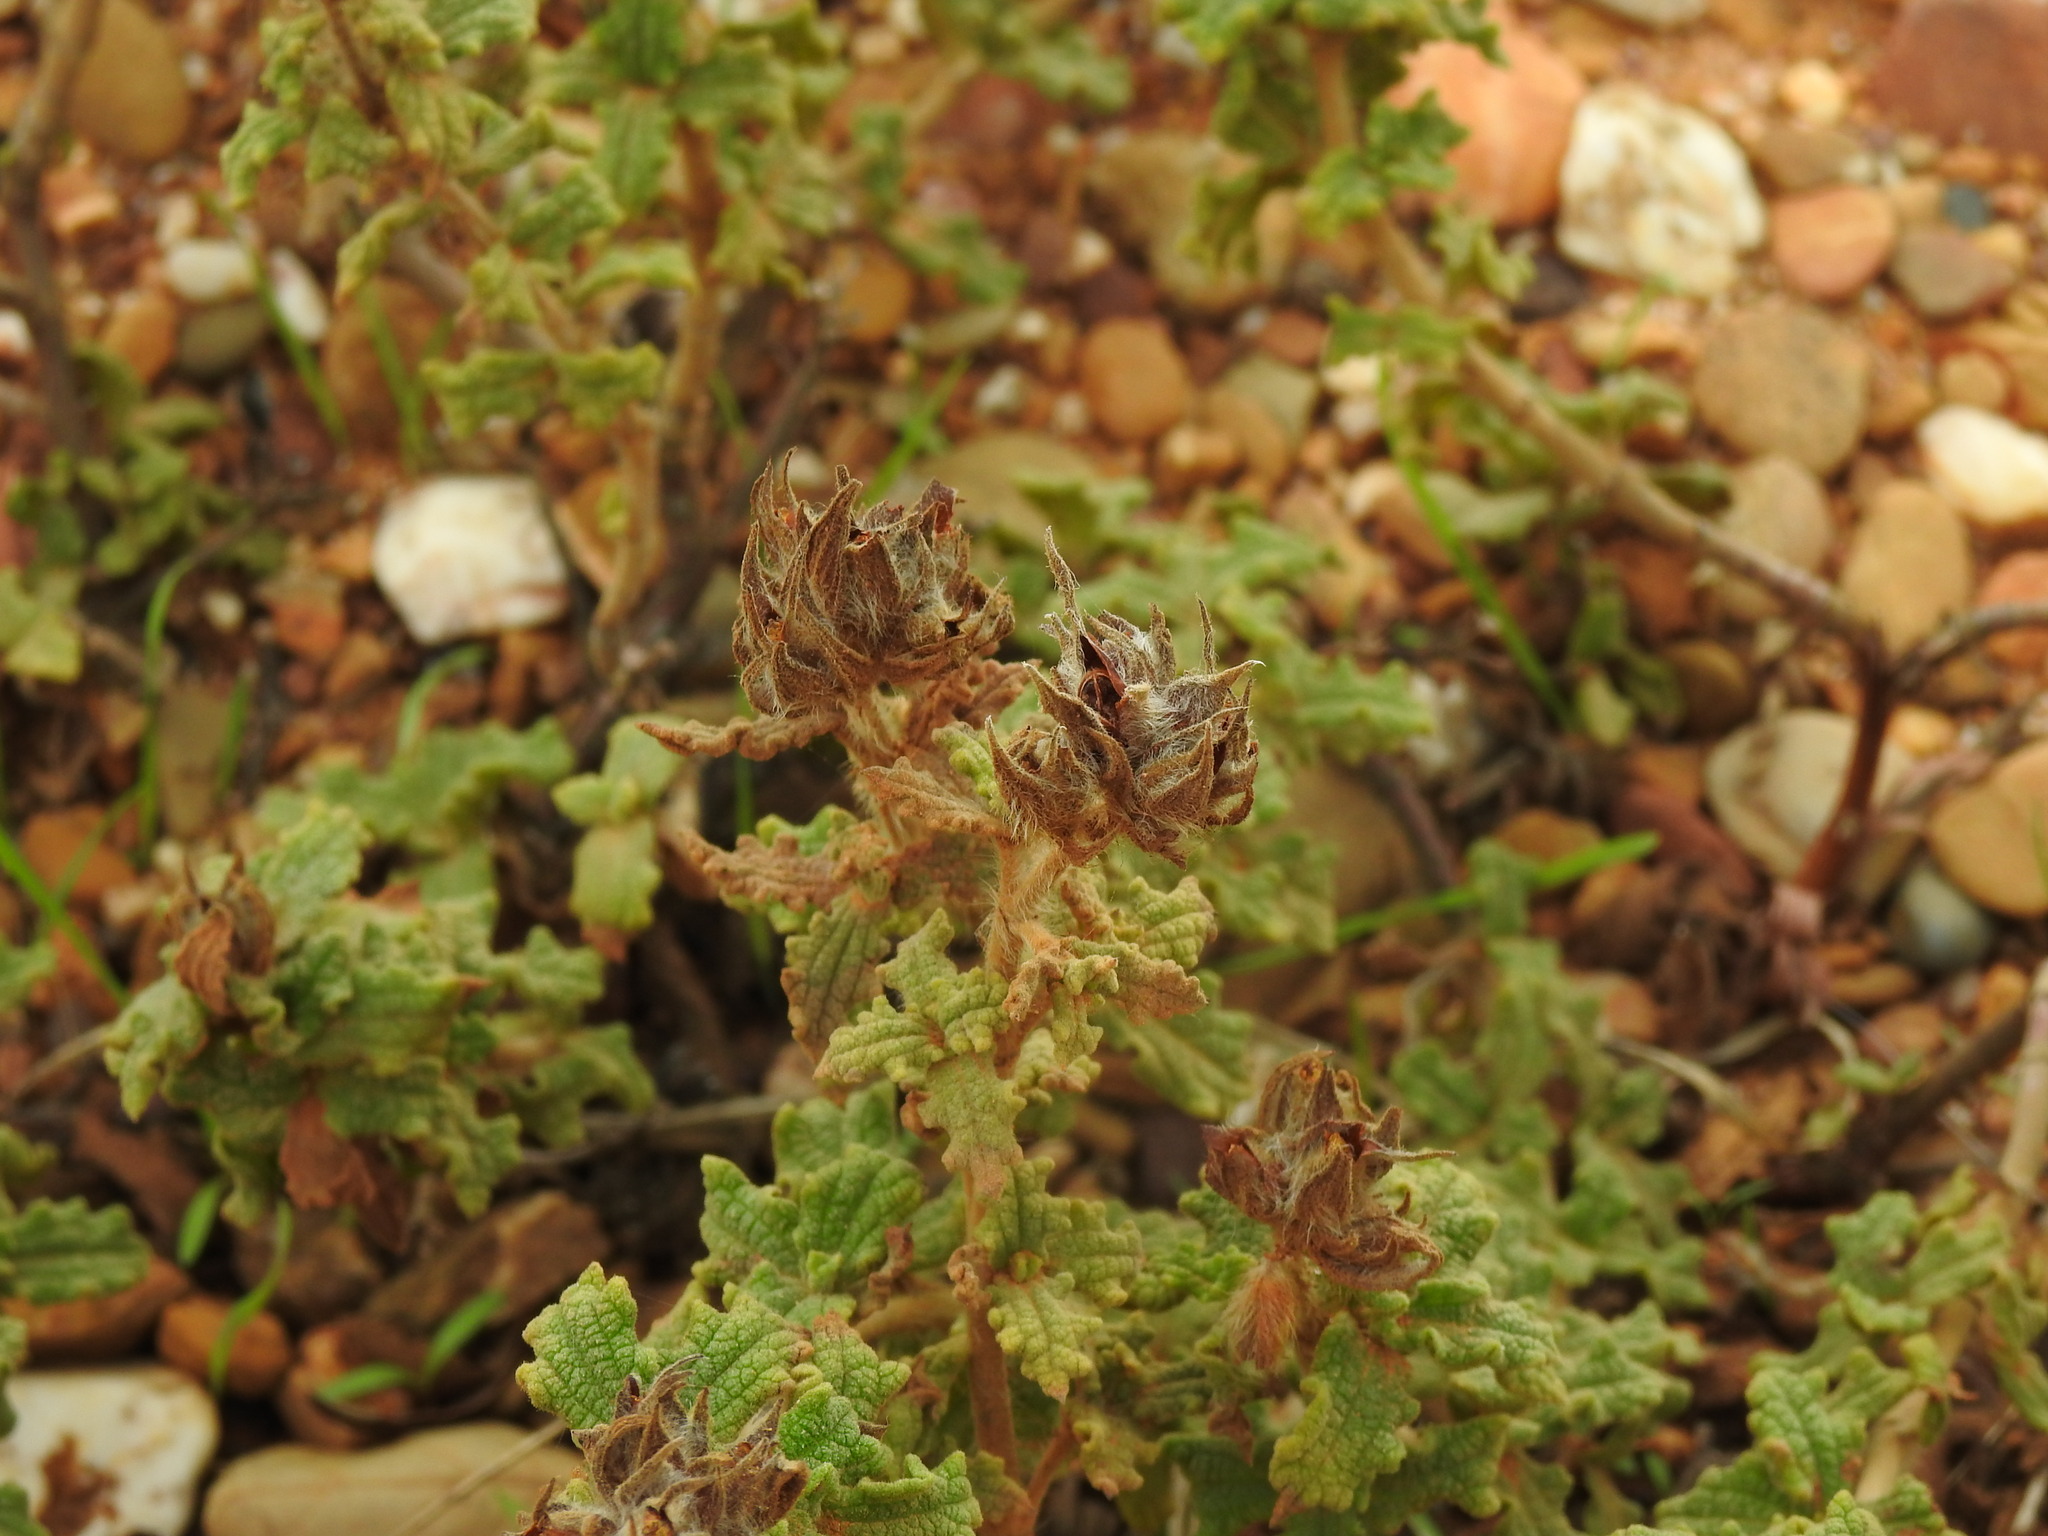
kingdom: Plantae
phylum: Tracheophyta
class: Magnoliopsida
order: Malvales
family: Cistaceae
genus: Cistus
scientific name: Cistus crispus
